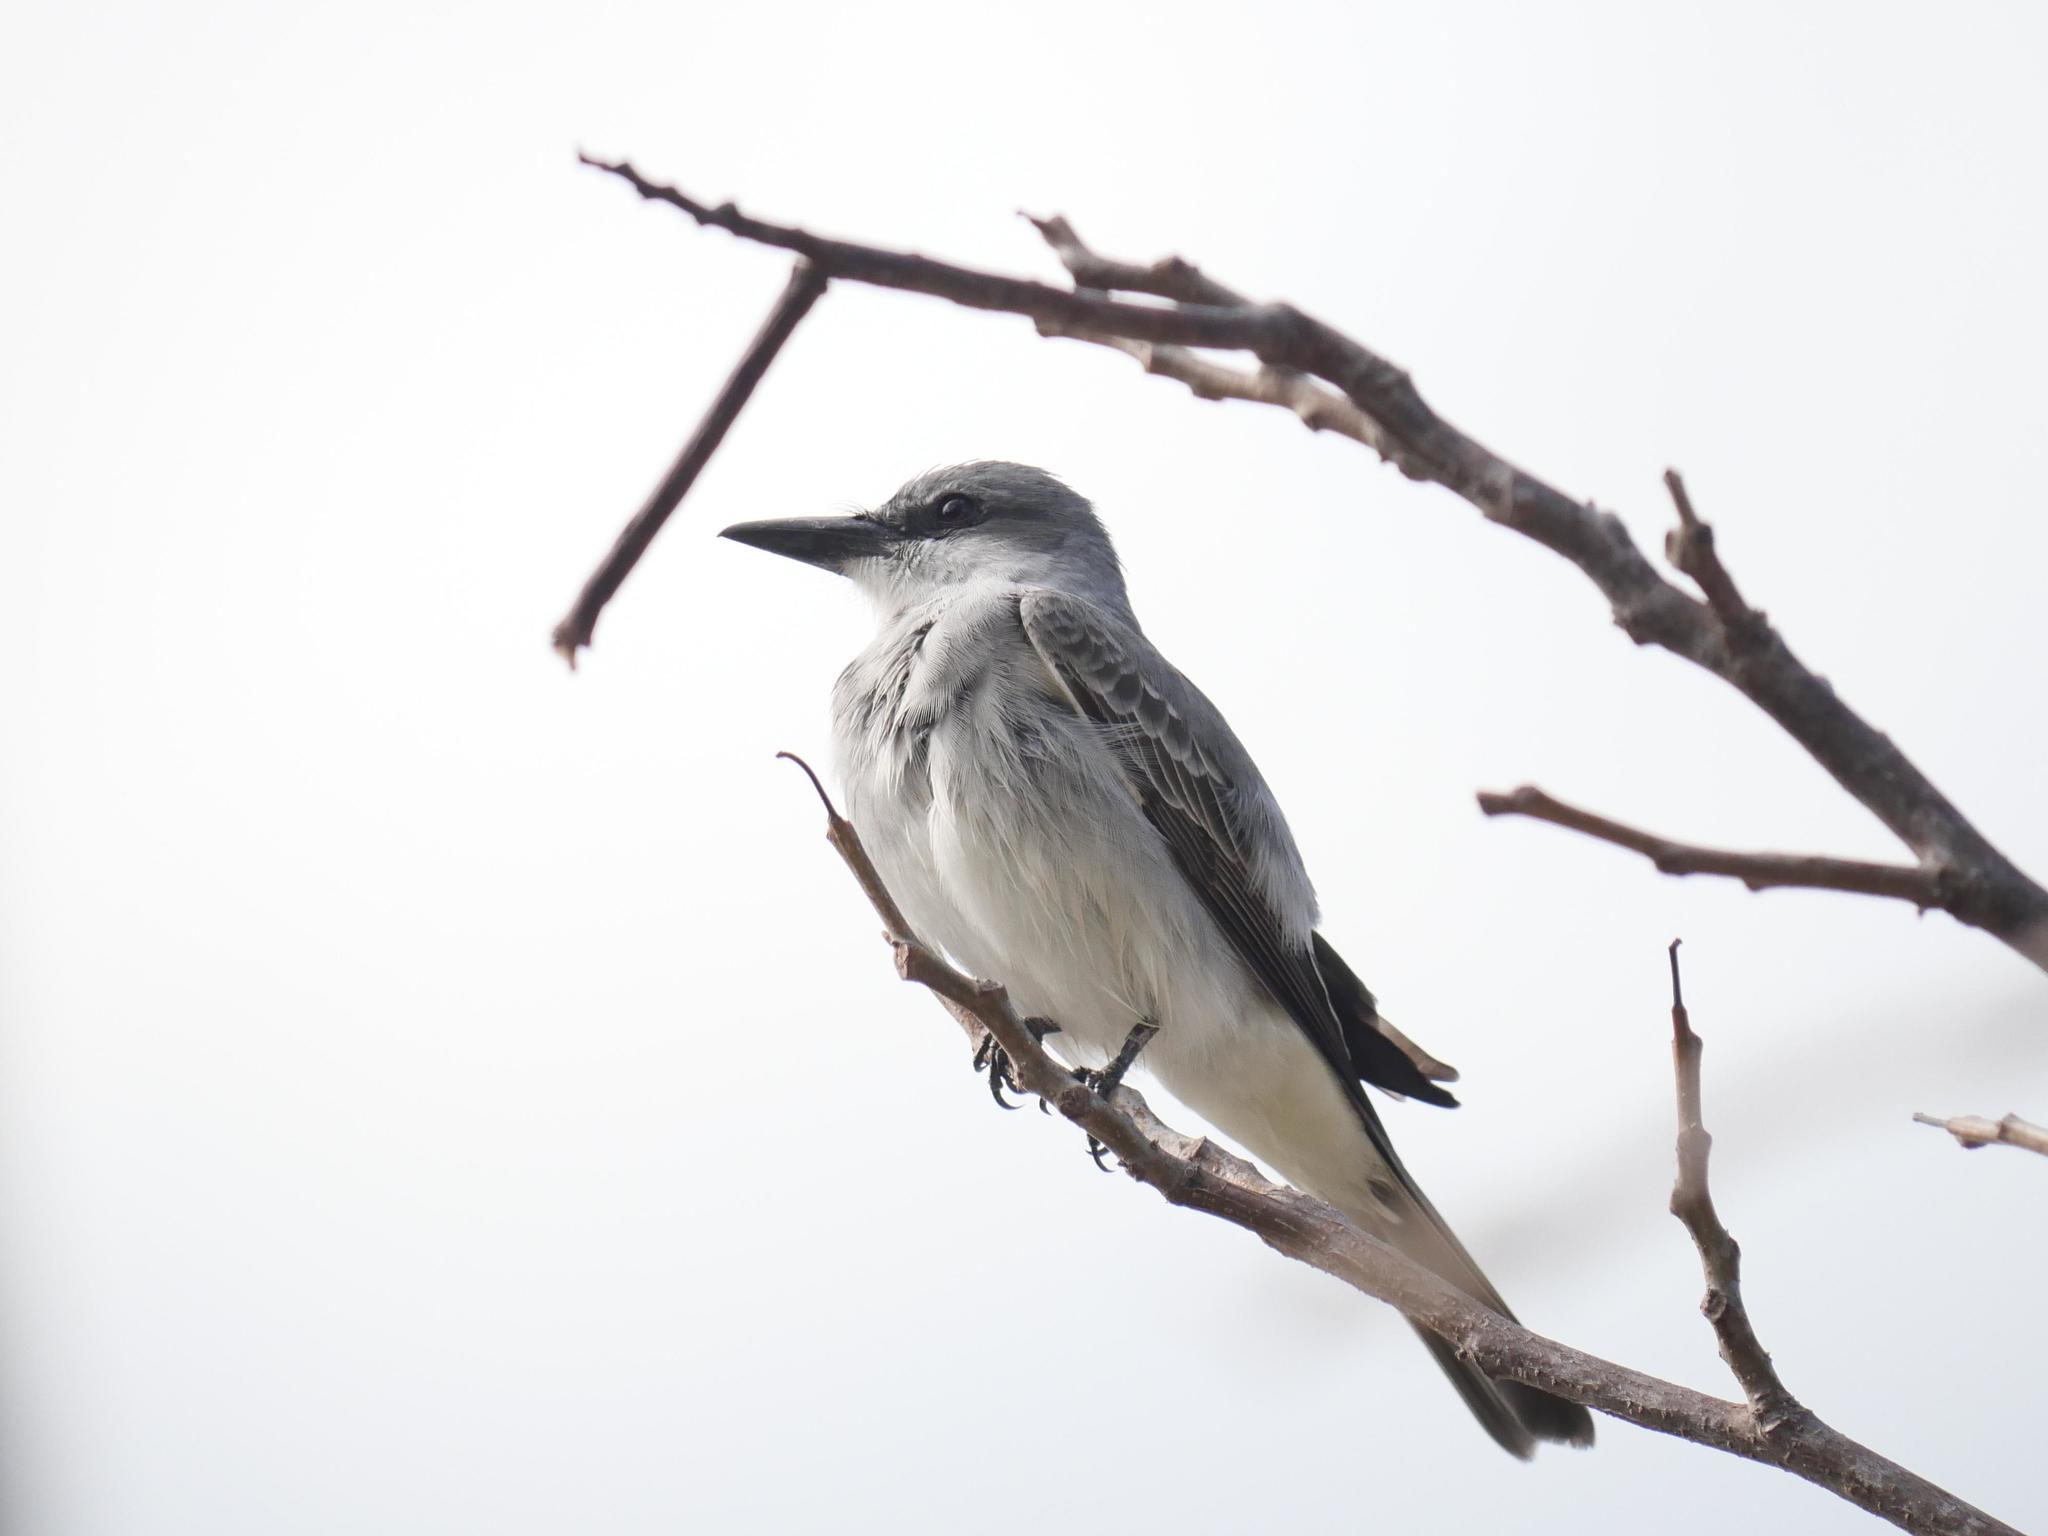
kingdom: Animalia
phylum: Chordata
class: Aves
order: Passeriformes
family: Tyrannidae
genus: Tyrannus
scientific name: Tyrannus dominicensis
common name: Gray kingbird
